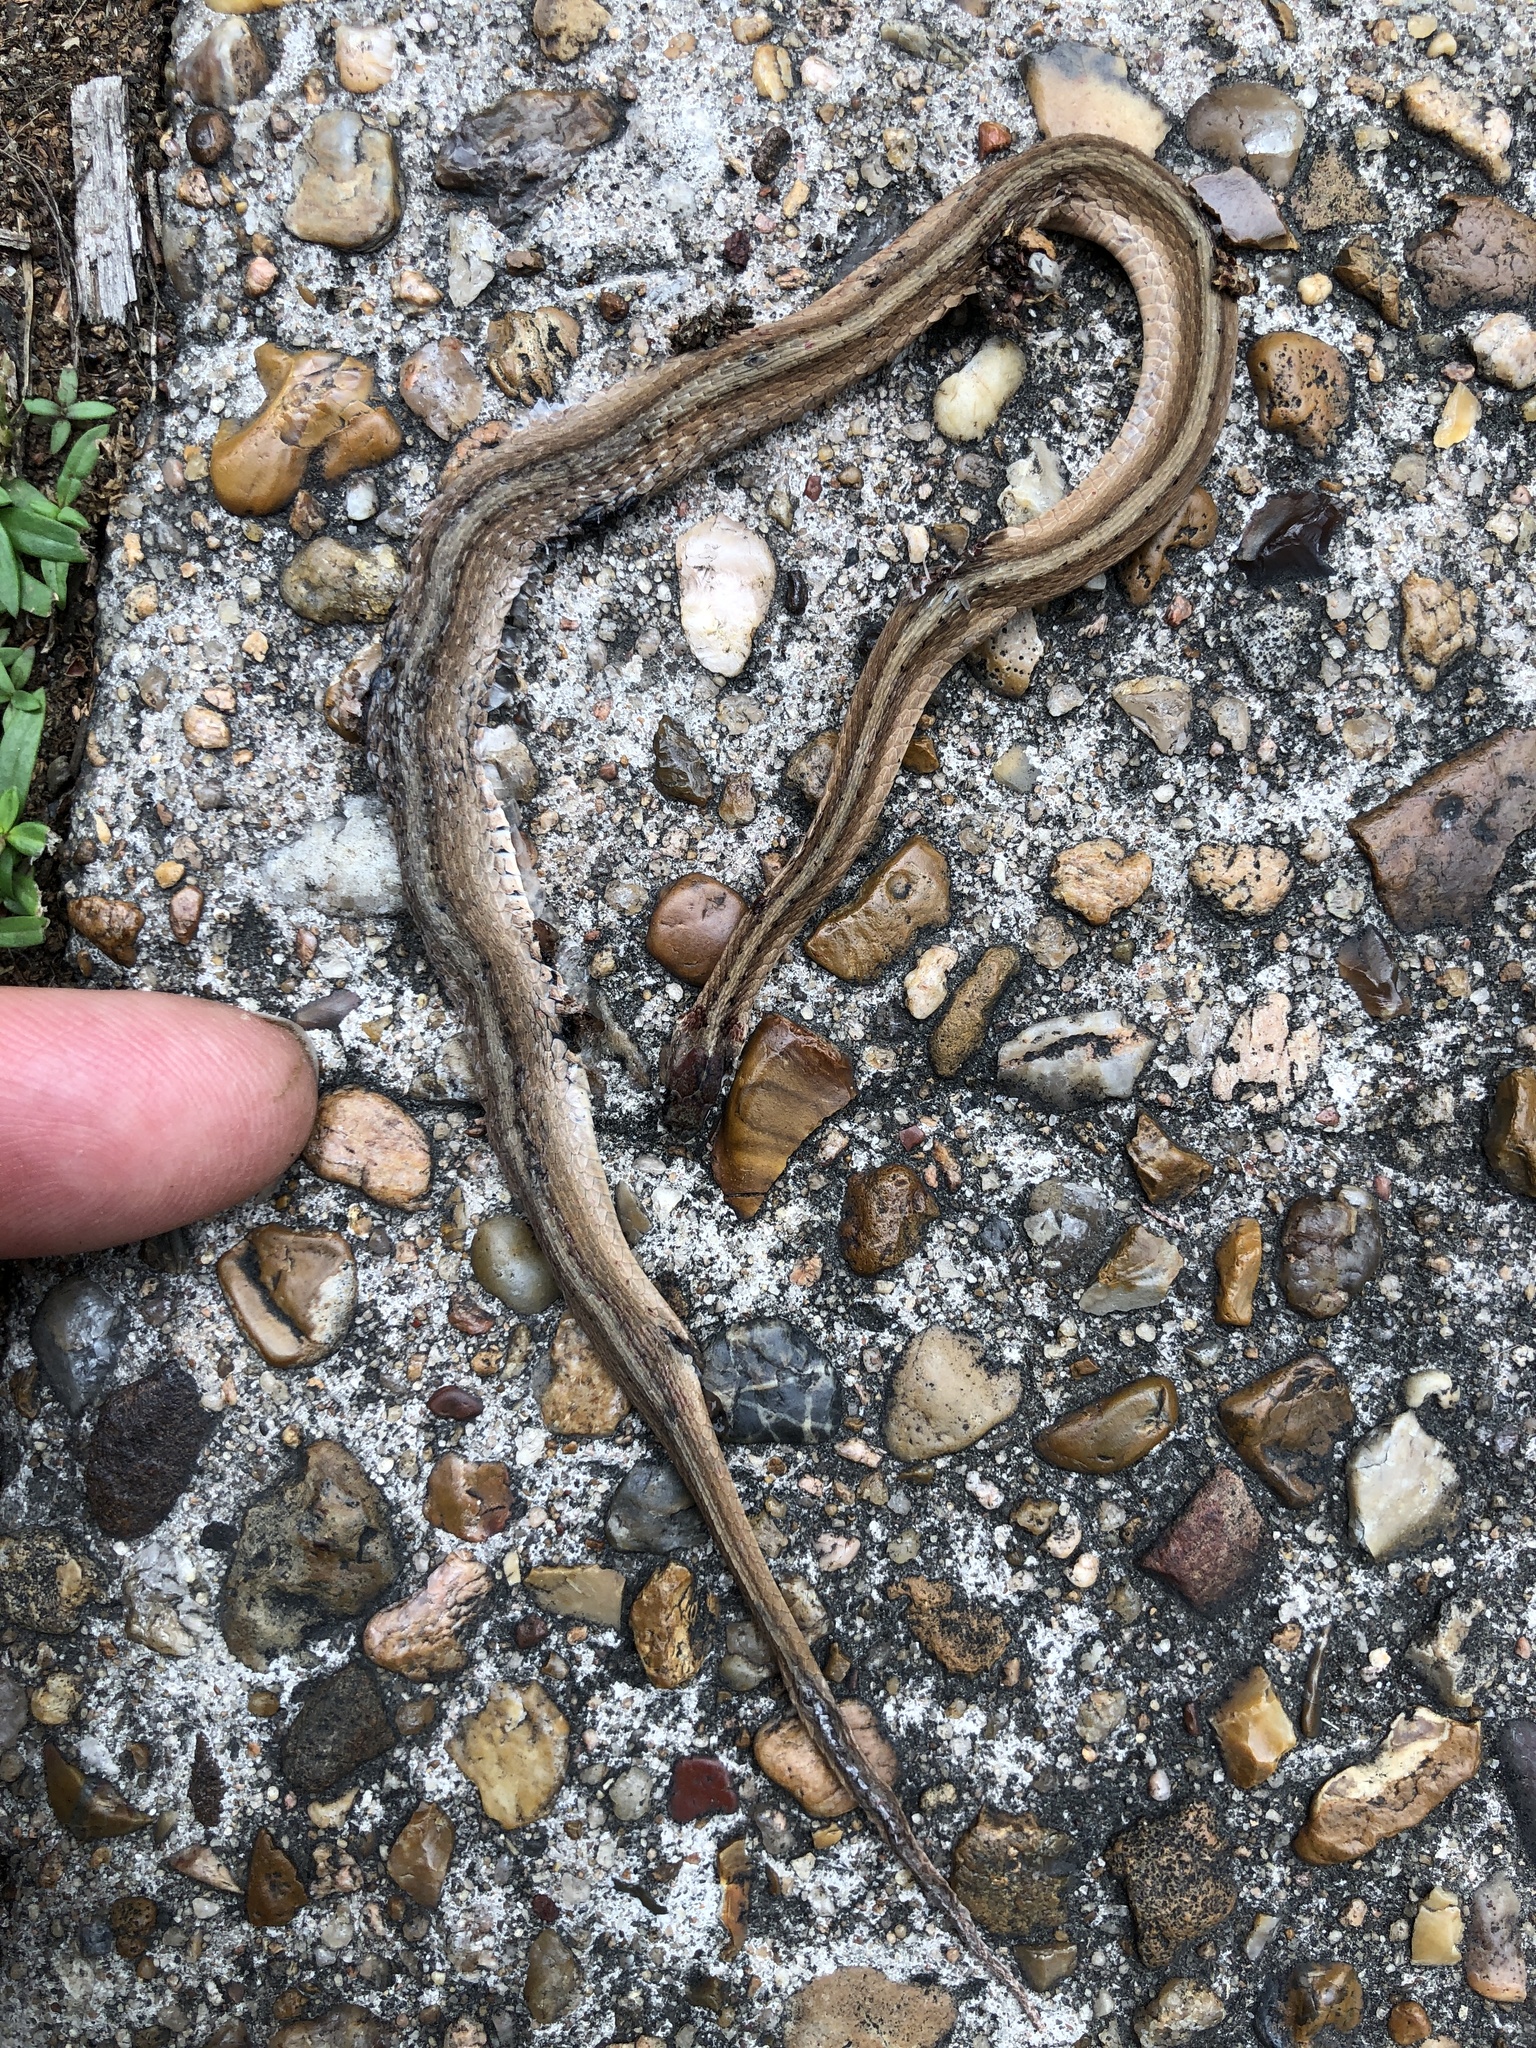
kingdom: Animalia
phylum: Chordata
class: Squamata
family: Colubridae
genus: Storeria
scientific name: Storeria dekayi
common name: (dekay’s) brown snake
